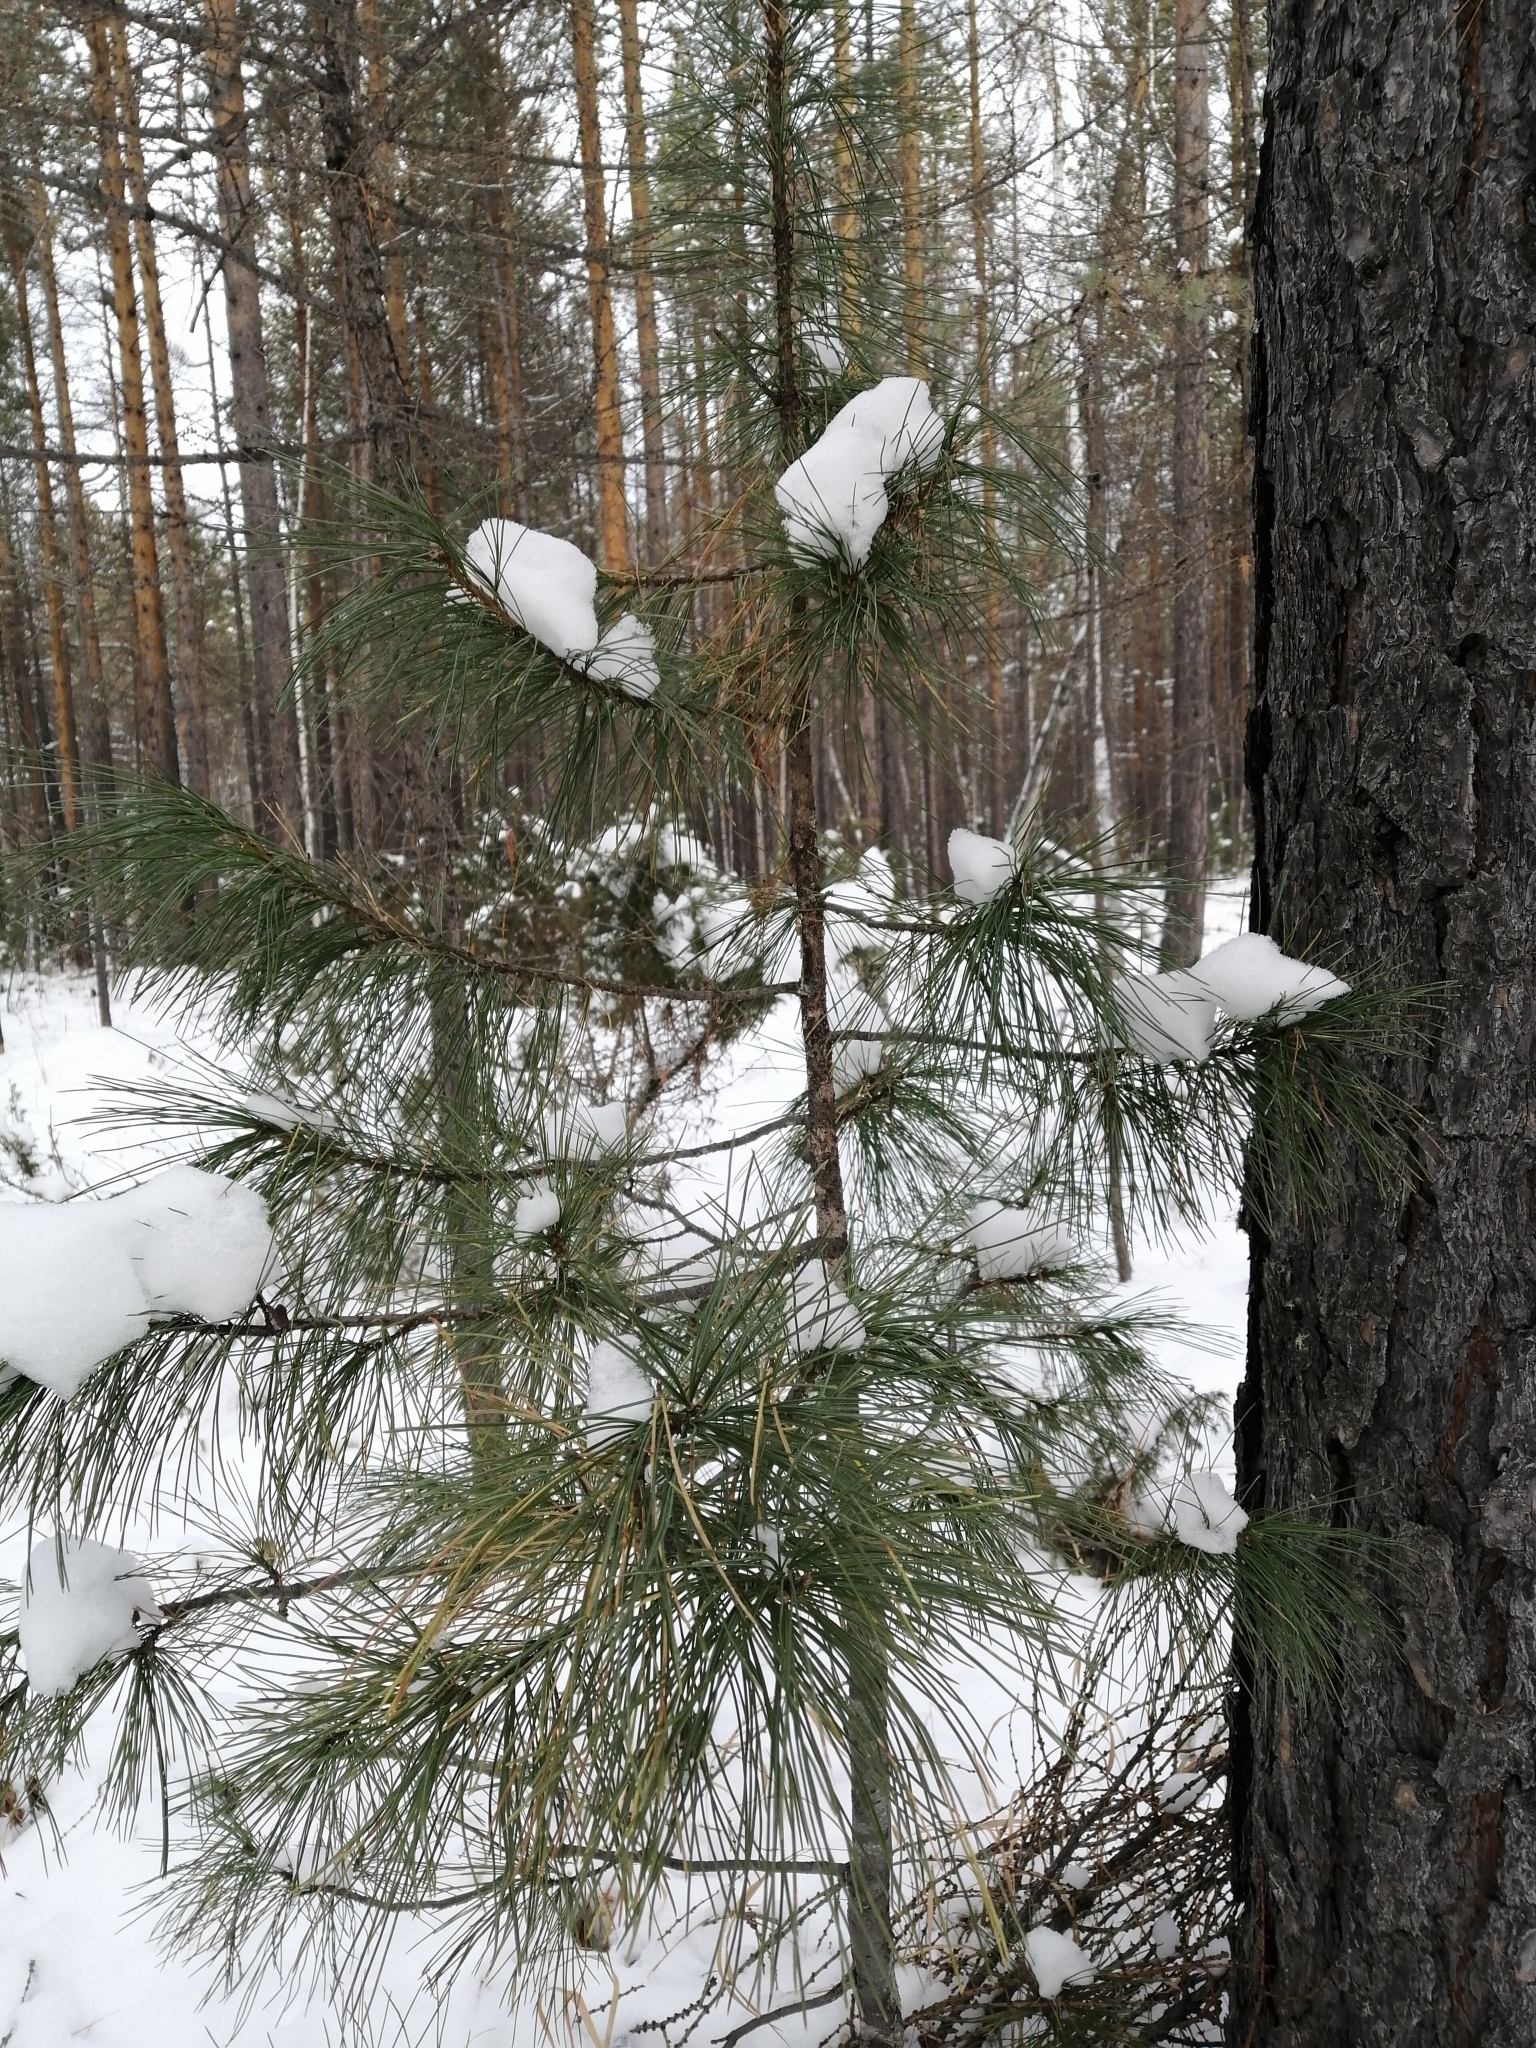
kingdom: Plantae
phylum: Tracheophyta
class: Pinopsida
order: Pinales
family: Pinaceae
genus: Pinus
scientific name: Pinus sibirica
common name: Siberian pine
